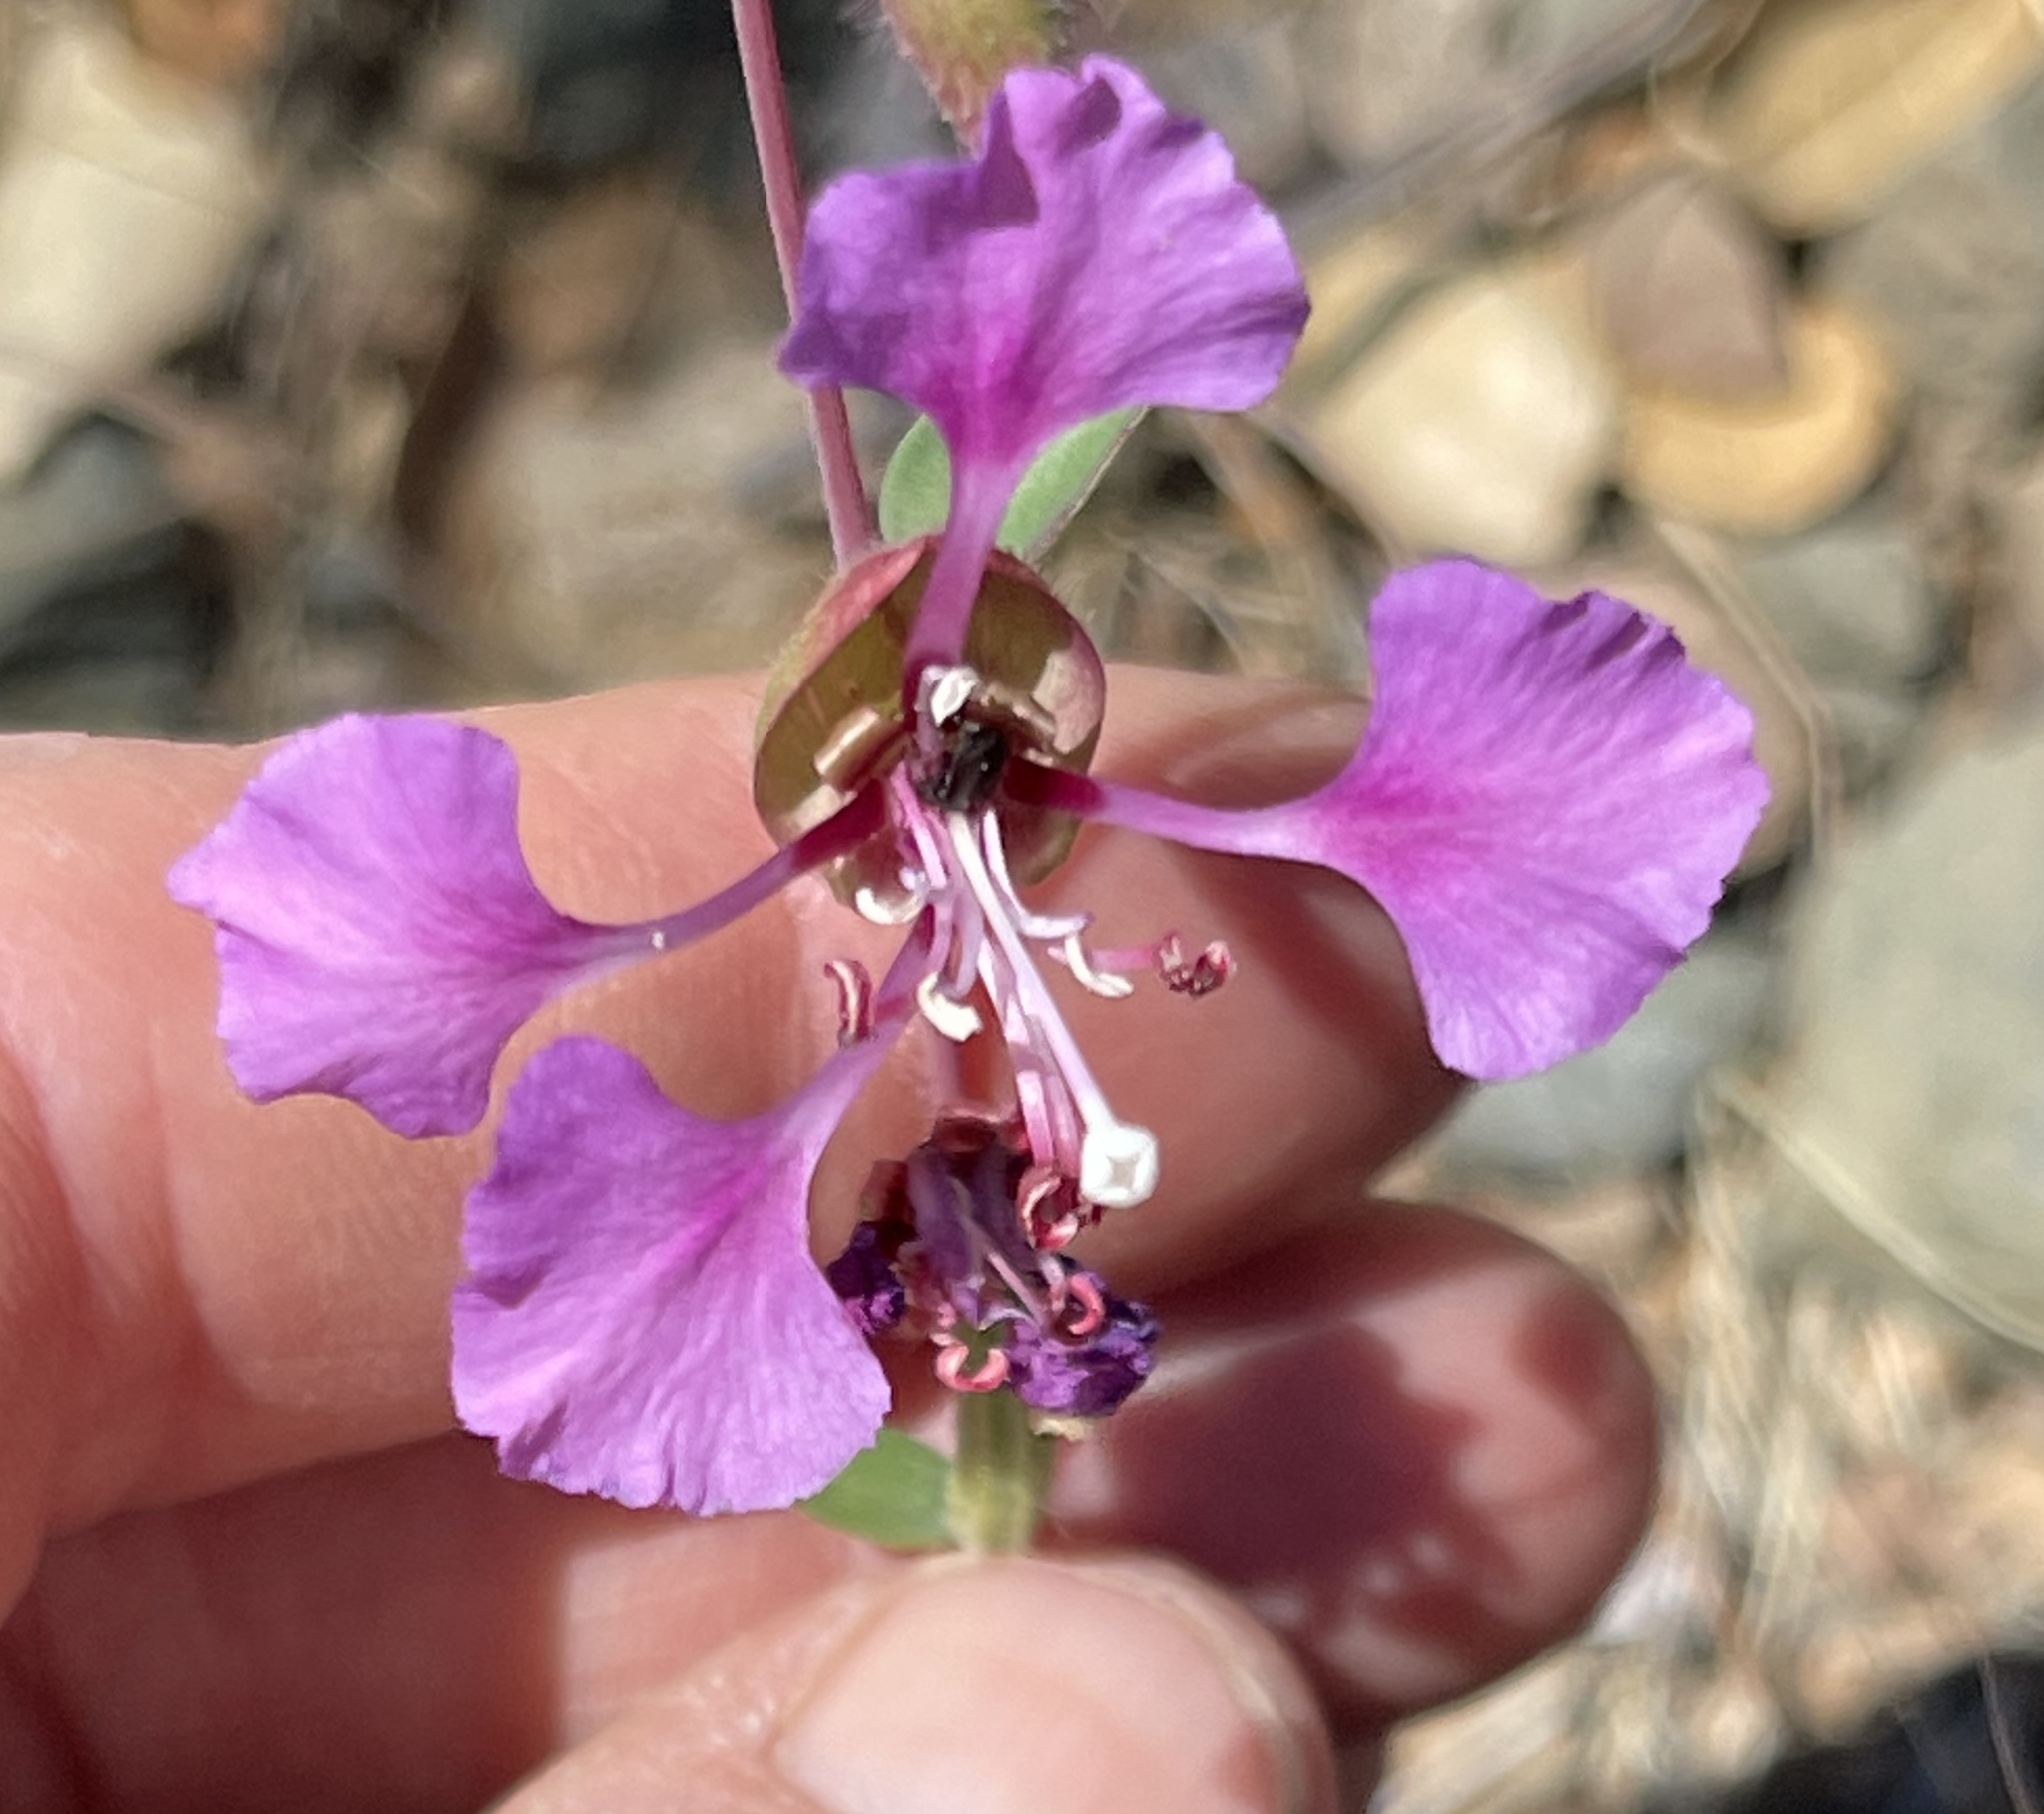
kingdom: Plantae
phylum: Tracheophyta
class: Magnoliopsida
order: Myrtales
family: Onagraceae
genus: Clarkia
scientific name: Clarkia unguiculata
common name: Clarkia
